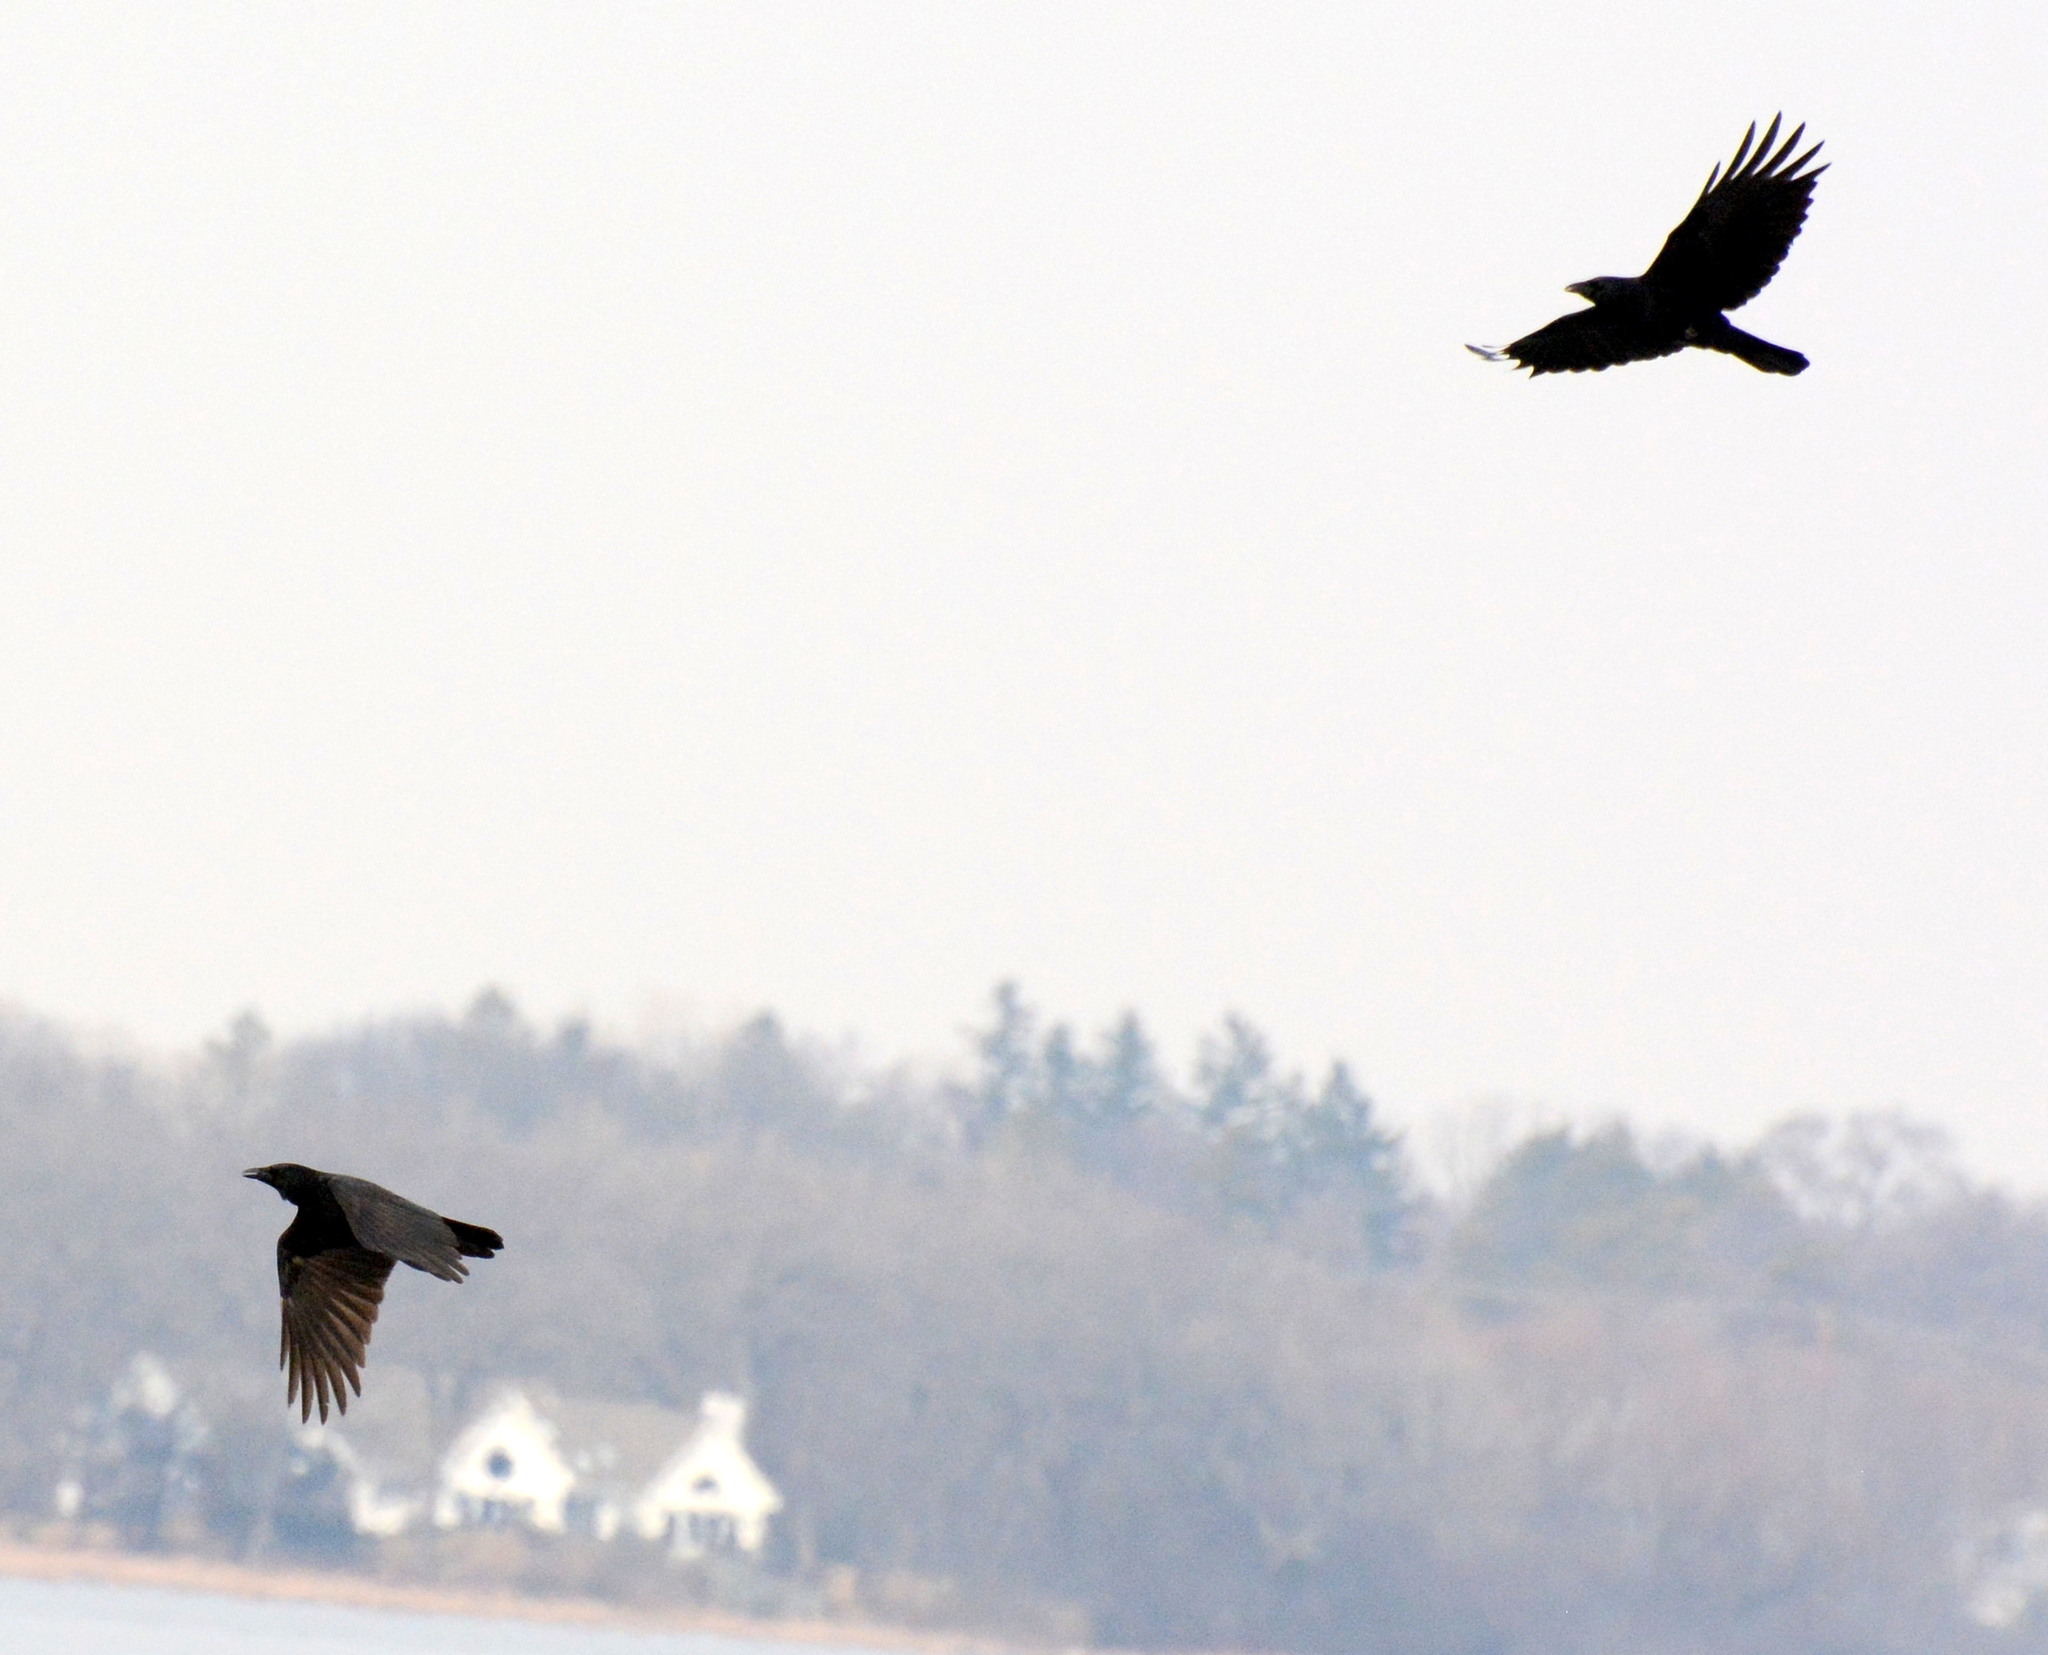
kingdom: Animalia
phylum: Chordata
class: Aves
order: Passeriformes
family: Corvidae
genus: Corvus
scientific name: Corvus brachyrhynchos
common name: American crow
